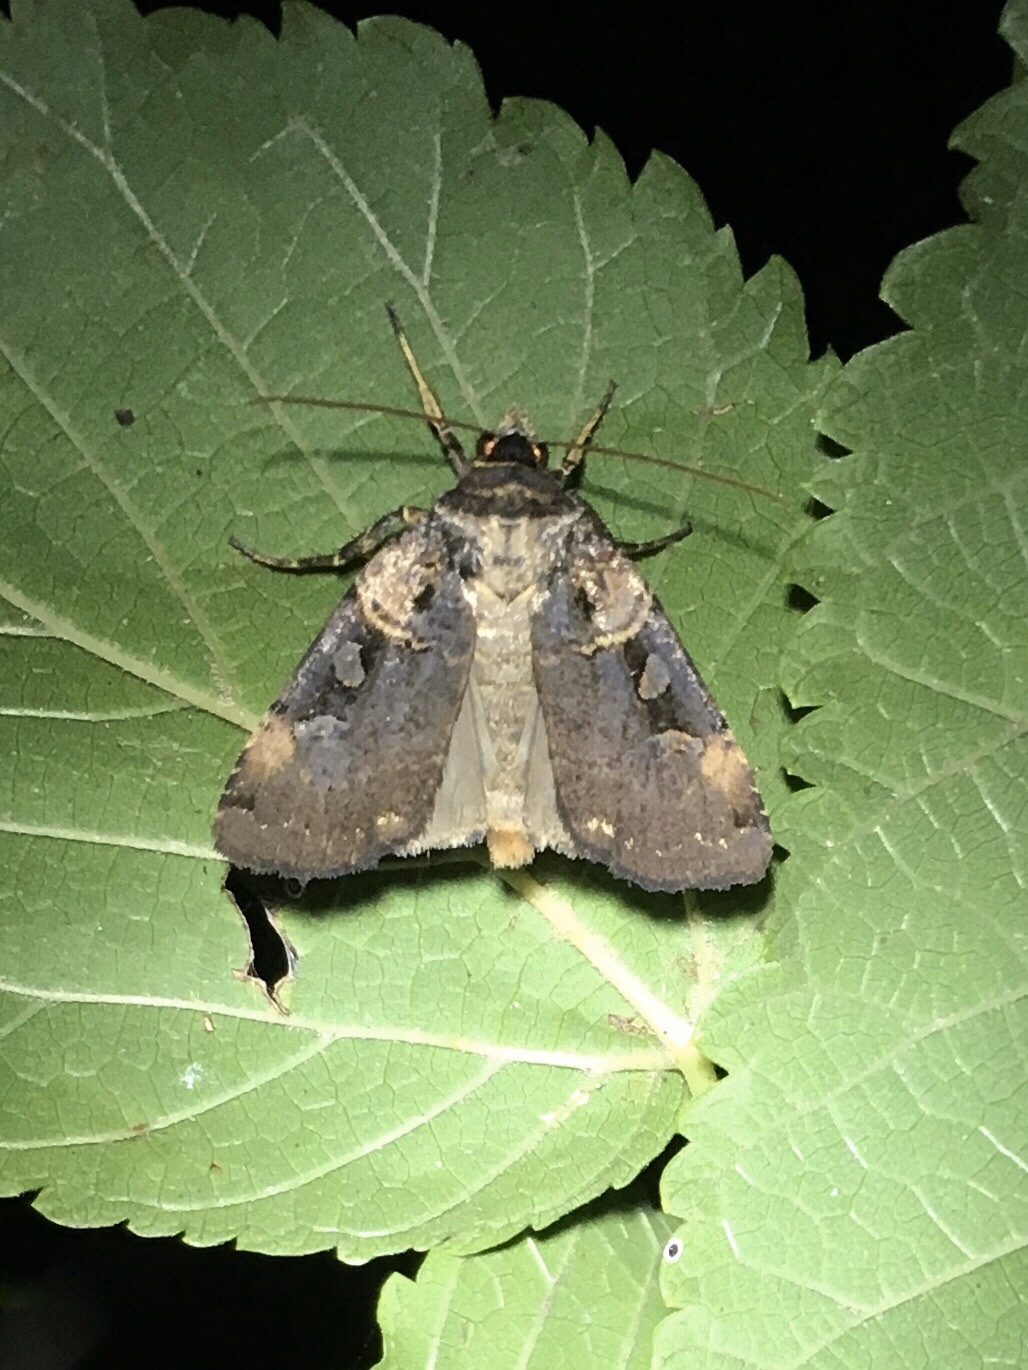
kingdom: Animalia
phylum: Arthropoda
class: Insecta
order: Lepidoptera
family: Noctuidae
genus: Pseudohermonassa
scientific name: Pseudohermonassa bicarnea
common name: Pink spotted dart
